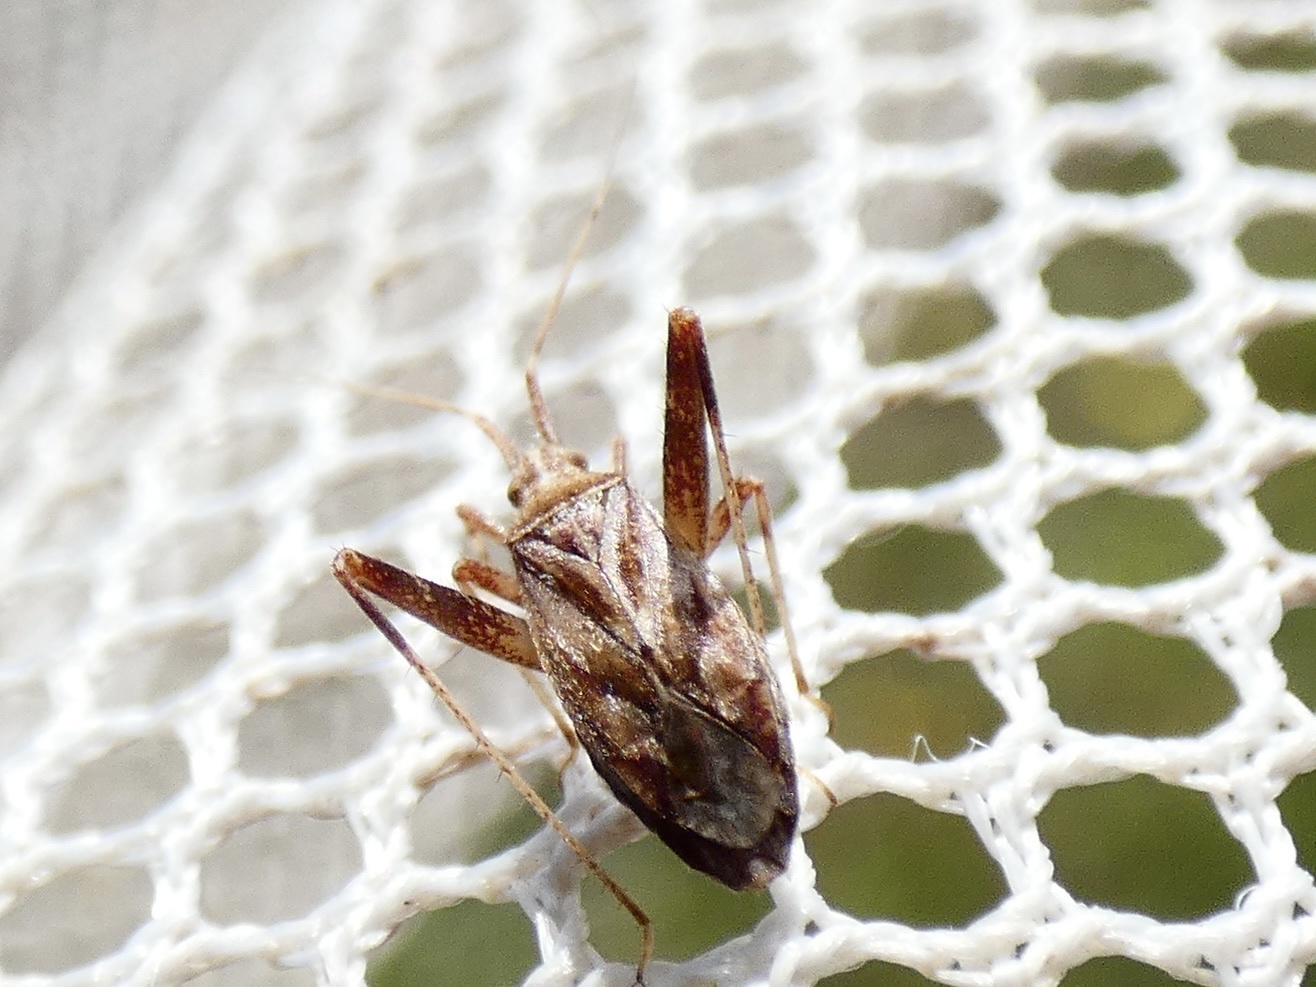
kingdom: Animalia
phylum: Arthropoda
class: Insecta
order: Hemiptera
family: Miridae
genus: Phytocoris
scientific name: Phytocoris varipes
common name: Plant bug
